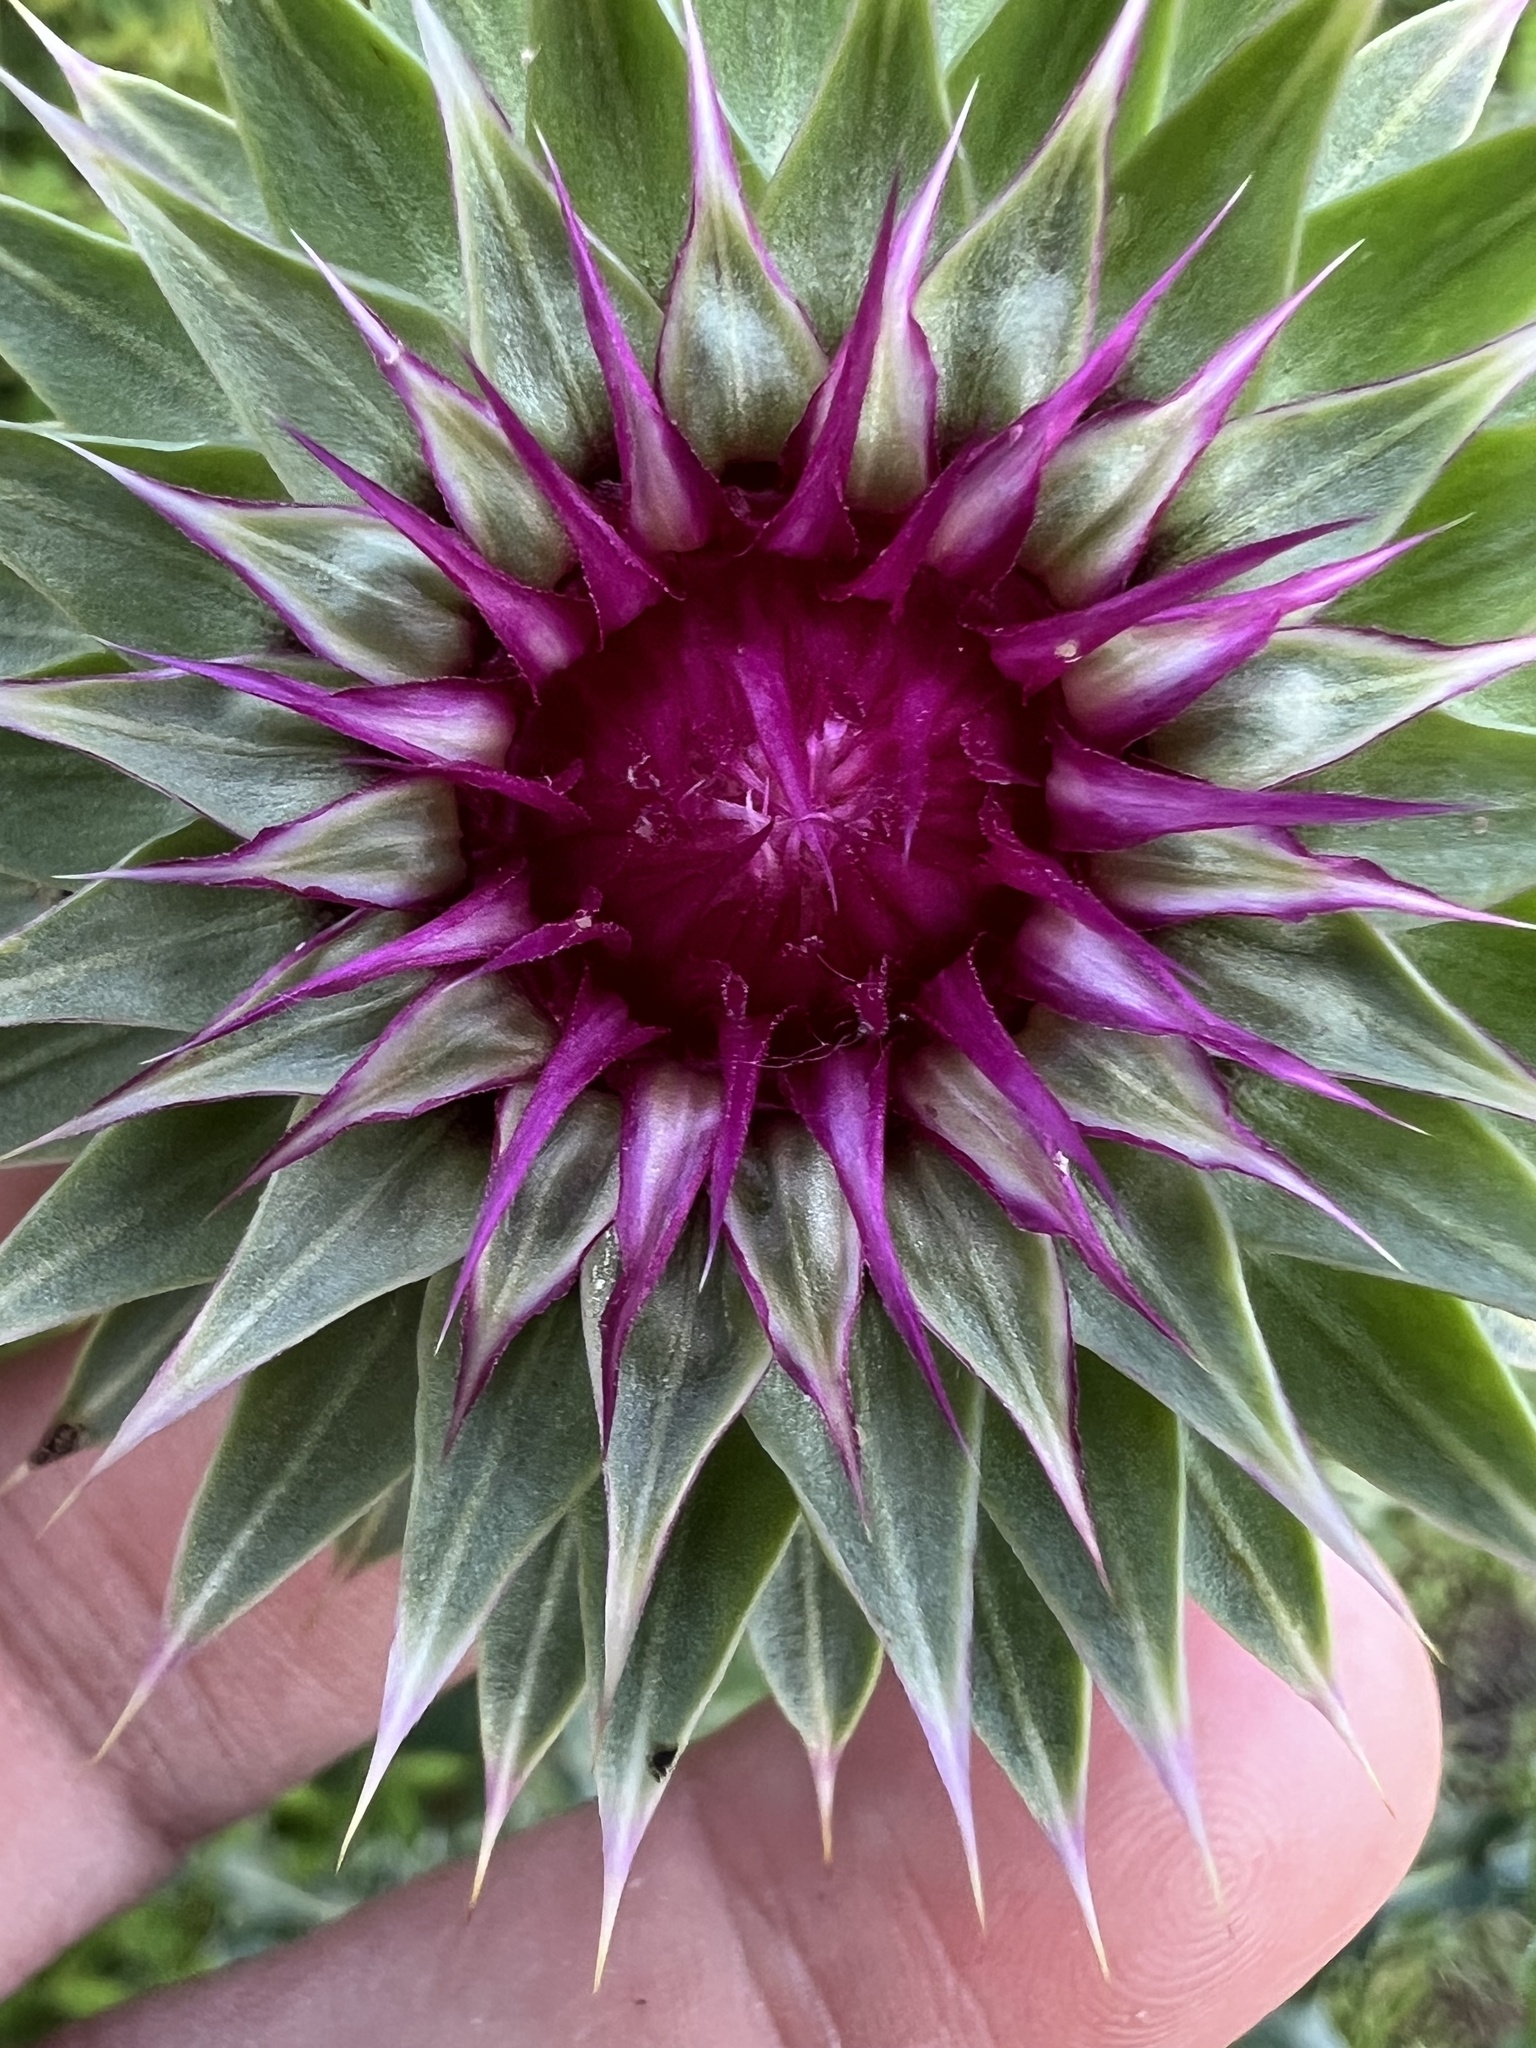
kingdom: Plantae
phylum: Tracheophyta
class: Magnoliopsida
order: Asterales
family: Asteraceae
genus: Carduus
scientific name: Carduus nutans
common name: Musk thistle
